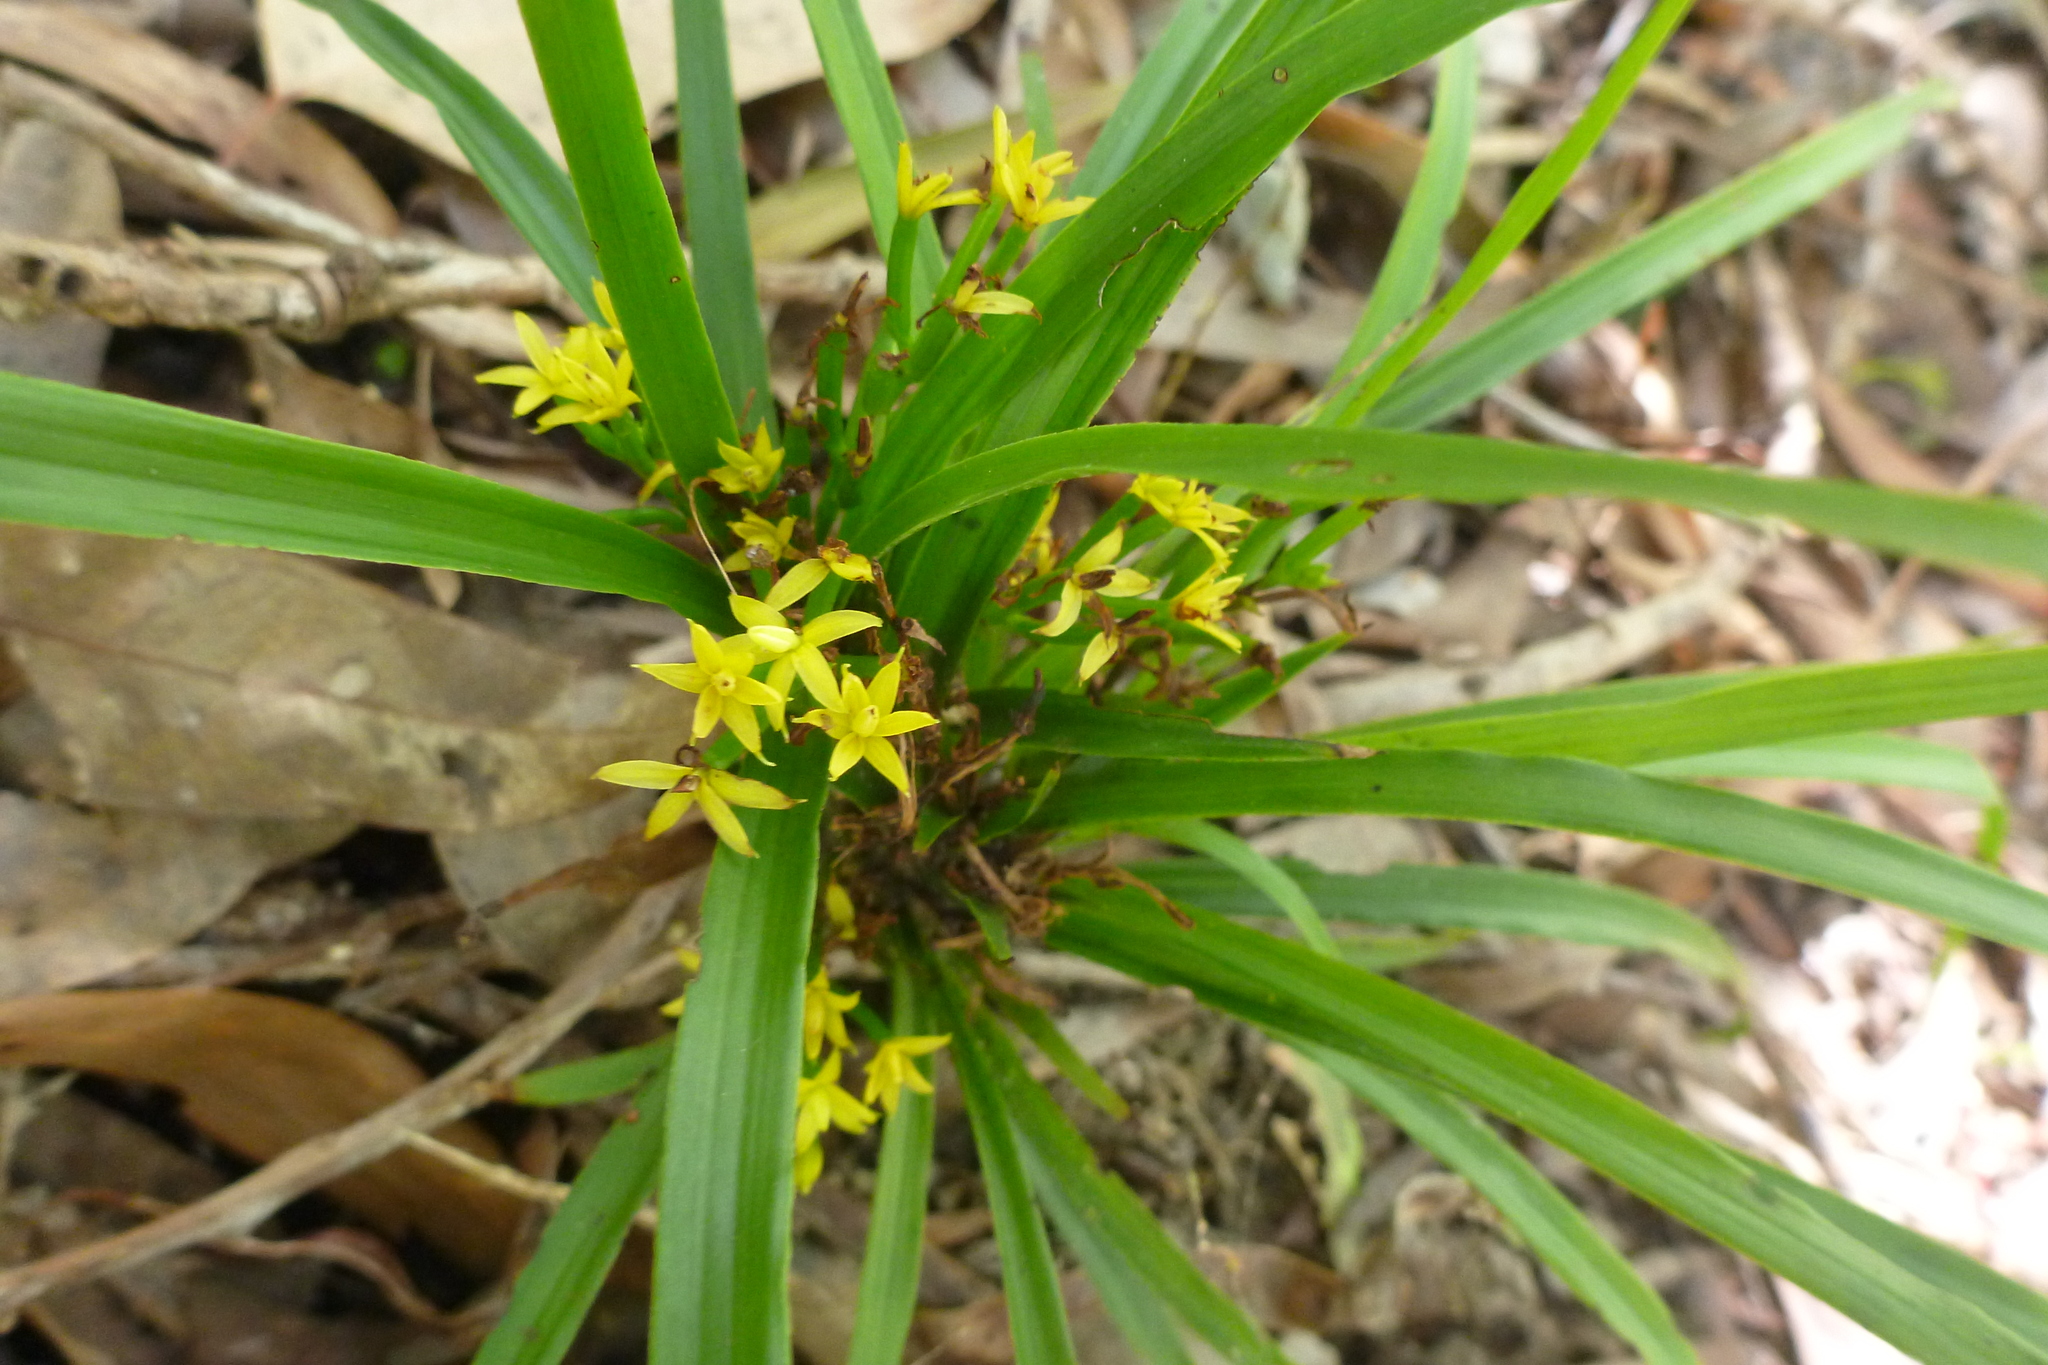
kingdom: Plantae
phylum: Tracheophyta
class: Liliopsida
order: Asparagales
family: Orchidaceae
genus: Apostasia
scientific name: Apostasia wallichii
